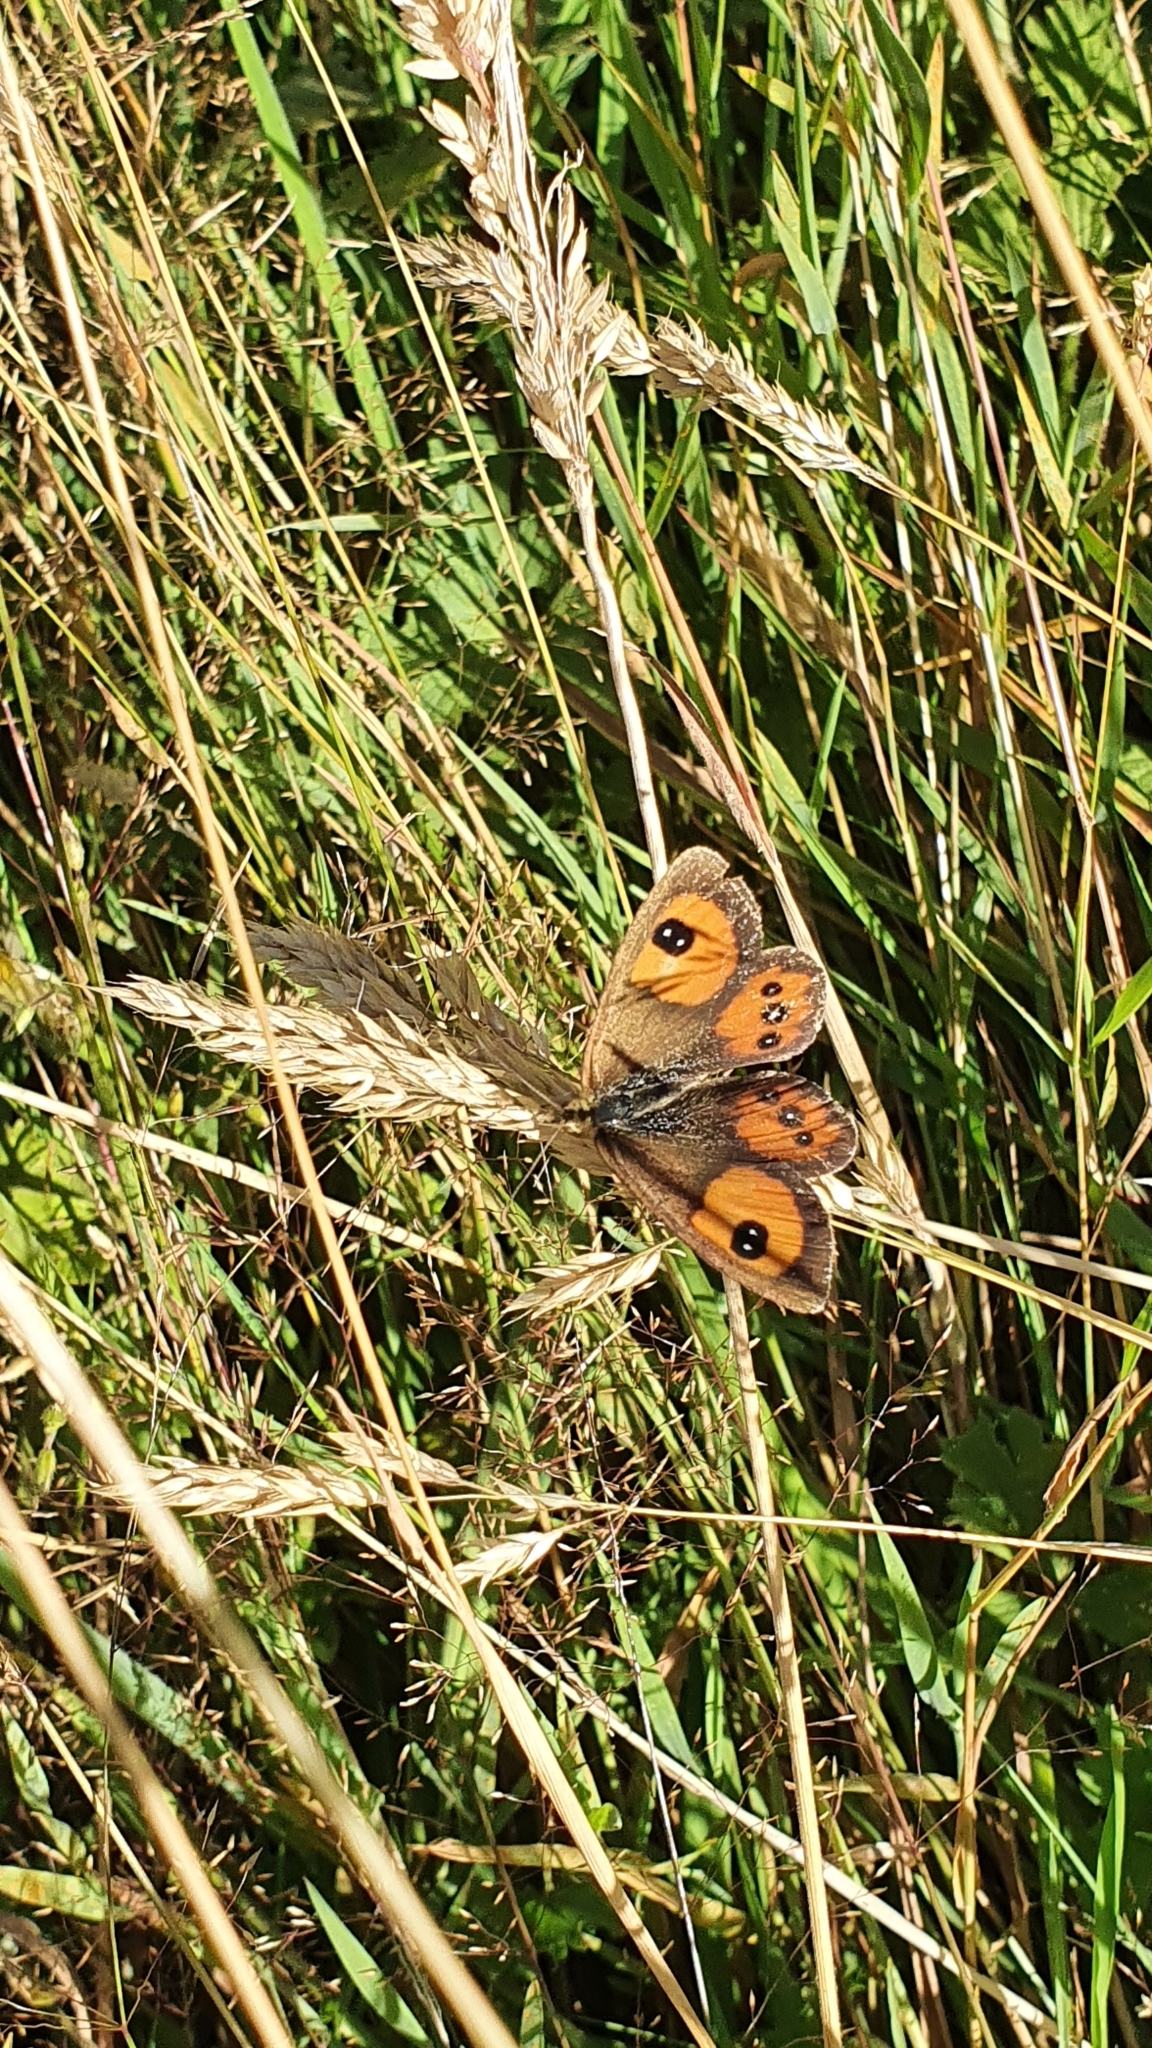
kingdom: Animalia
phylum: Arthropoda
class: Insecta
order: Lepidoptera
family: Nymphalidae
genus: Argyrophenga
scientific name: Argyrophenga antipodum
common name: Common tussock butterfly
